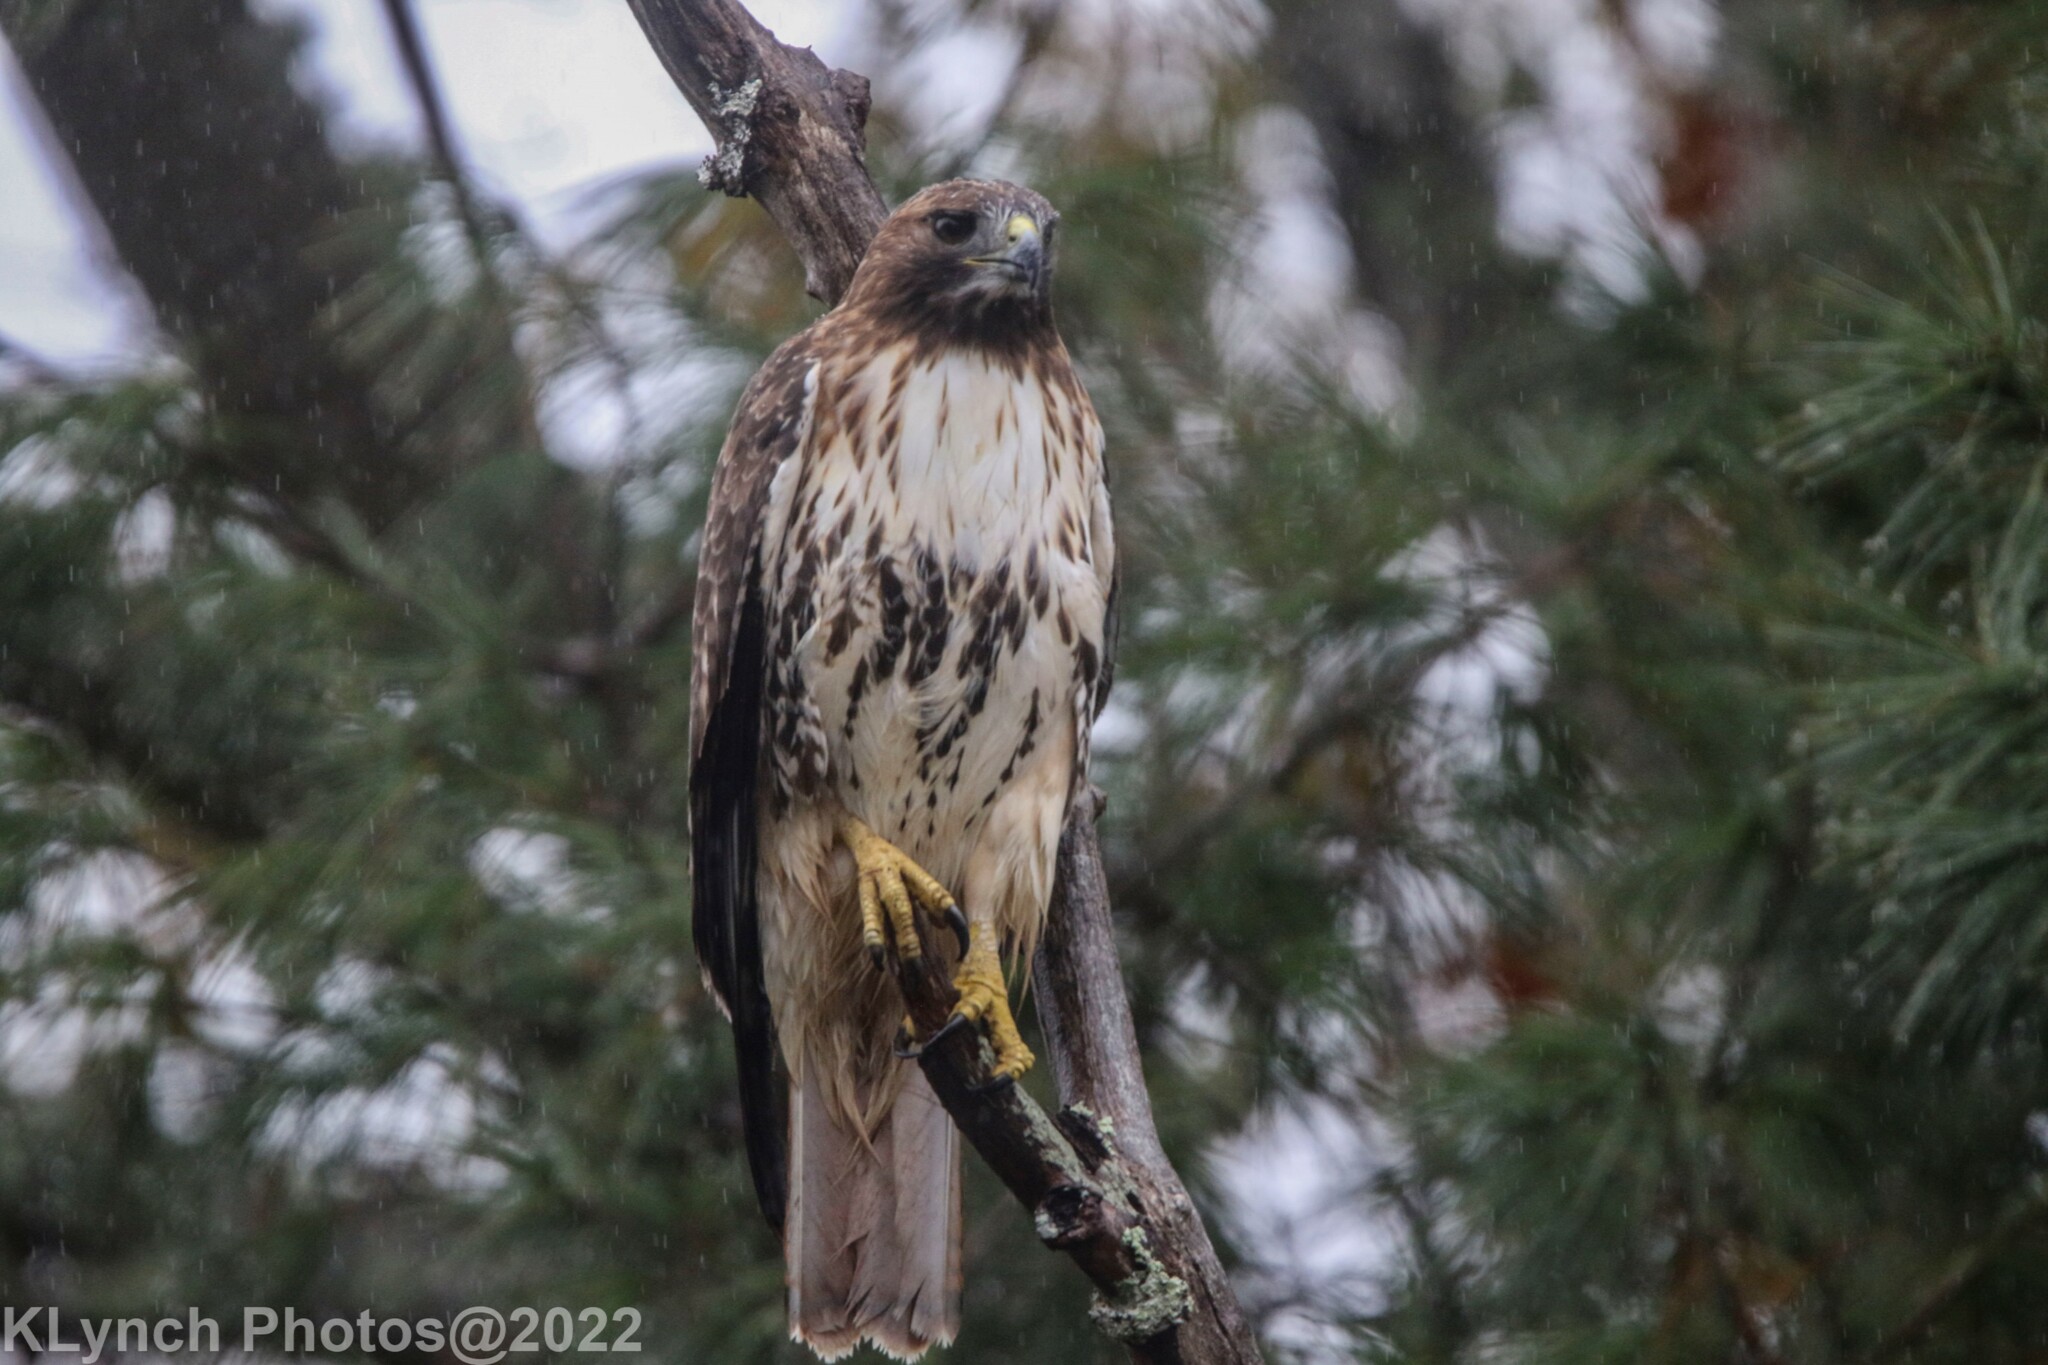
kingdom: Animalia
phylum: Chordata
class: Aves
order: Accipitriformes
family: Accipitridae
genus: Buteo
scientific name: Buteo jamaicensis
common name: Red-tailed hawk
